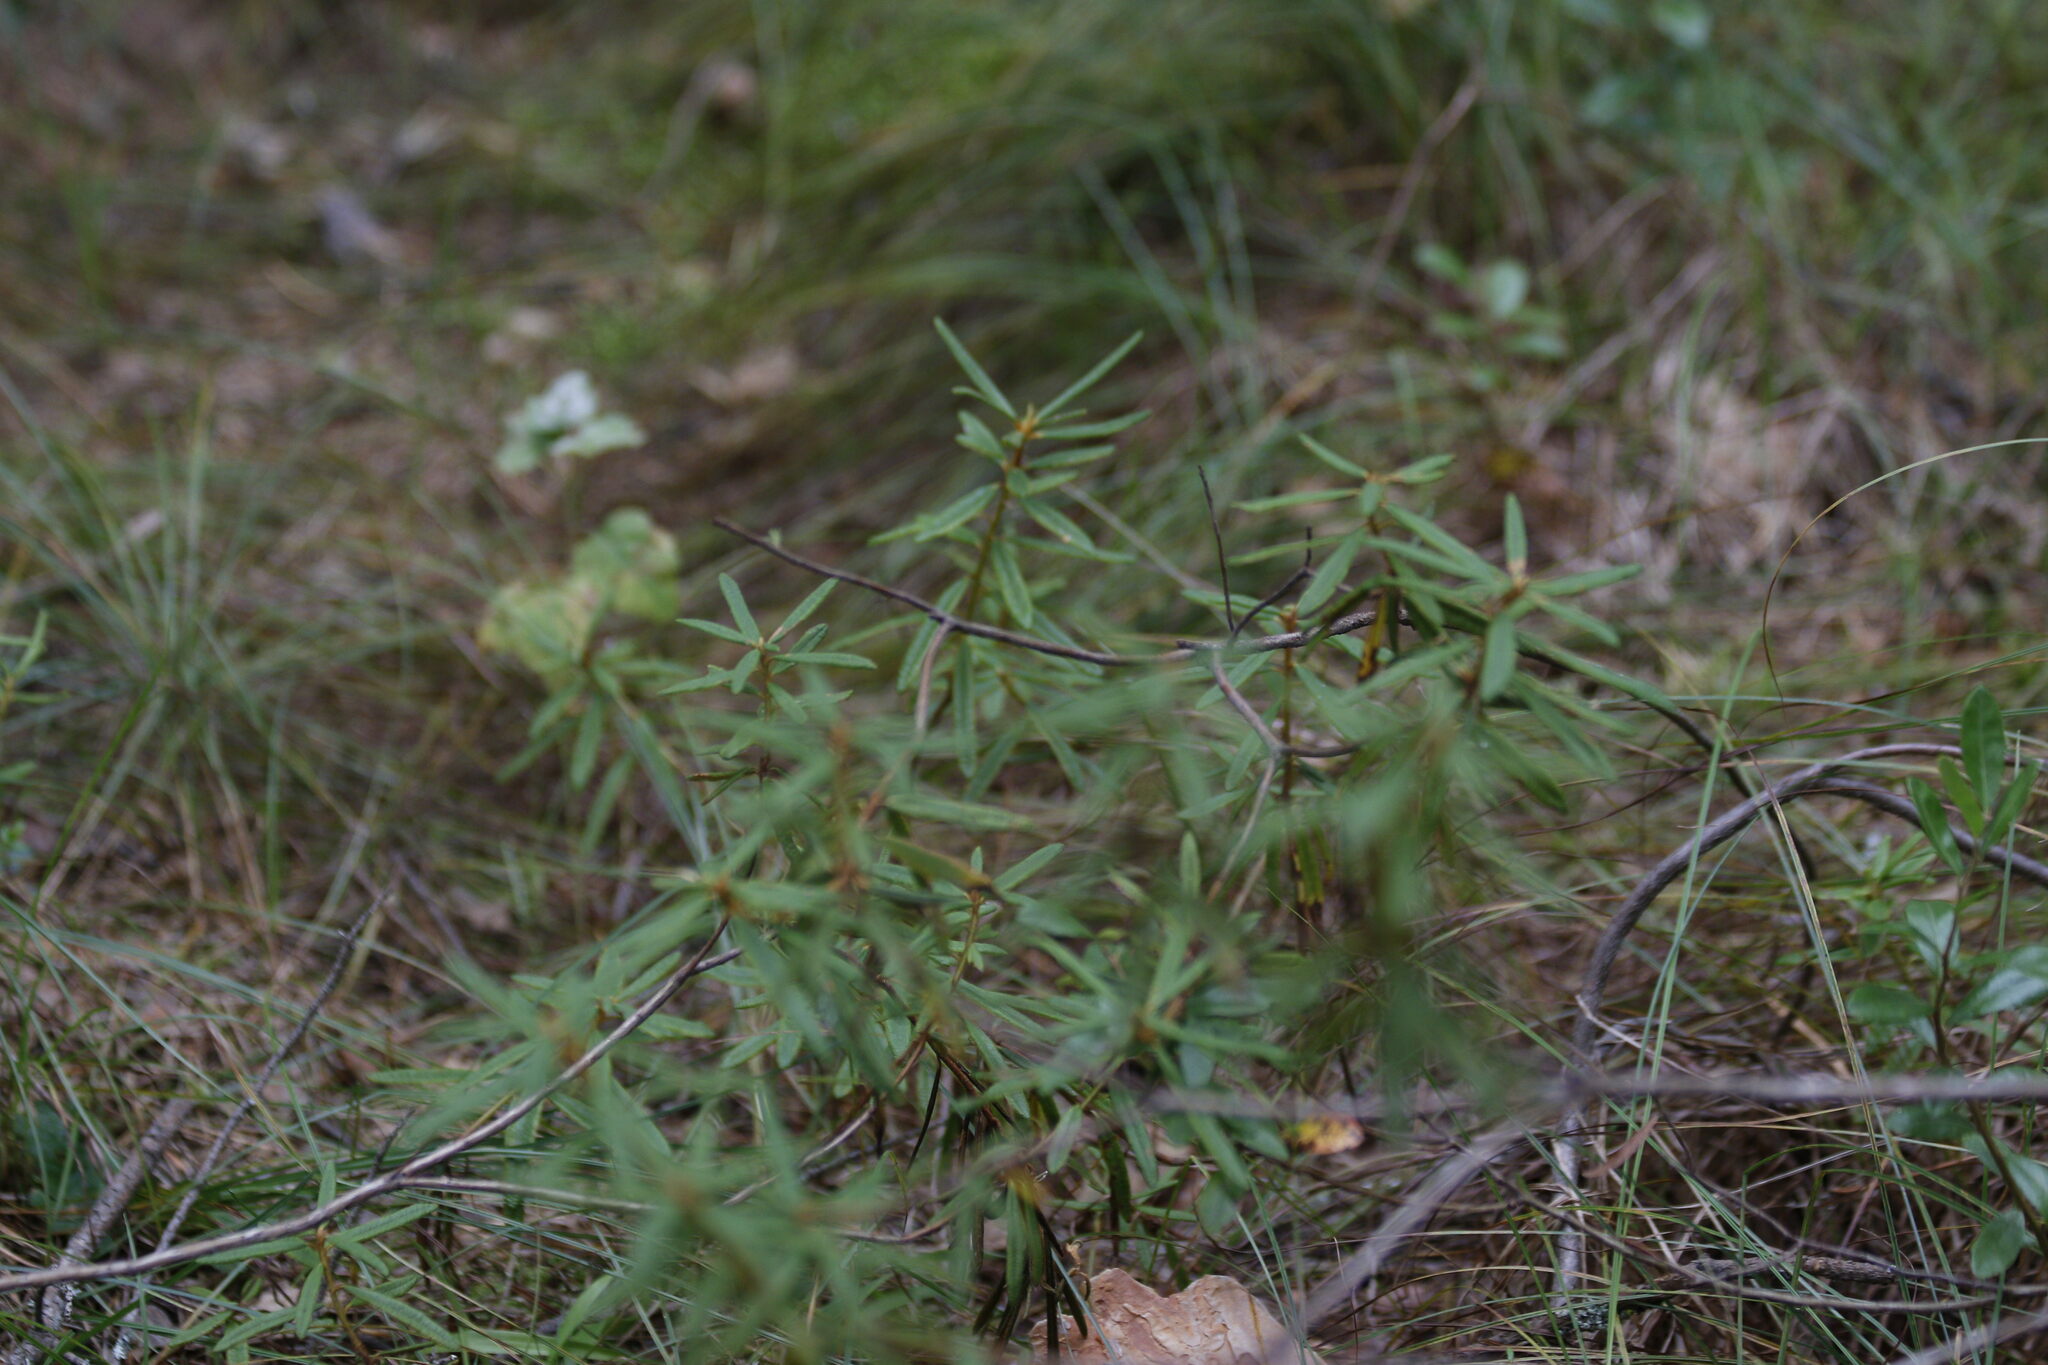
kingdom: Plantae
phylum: Tracheophyta
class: Magnoliopsida
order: Ericales
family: Ericaceae
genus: Rhododendron
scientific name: Rhododendron tomentosum
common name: Marsh labrador tea
